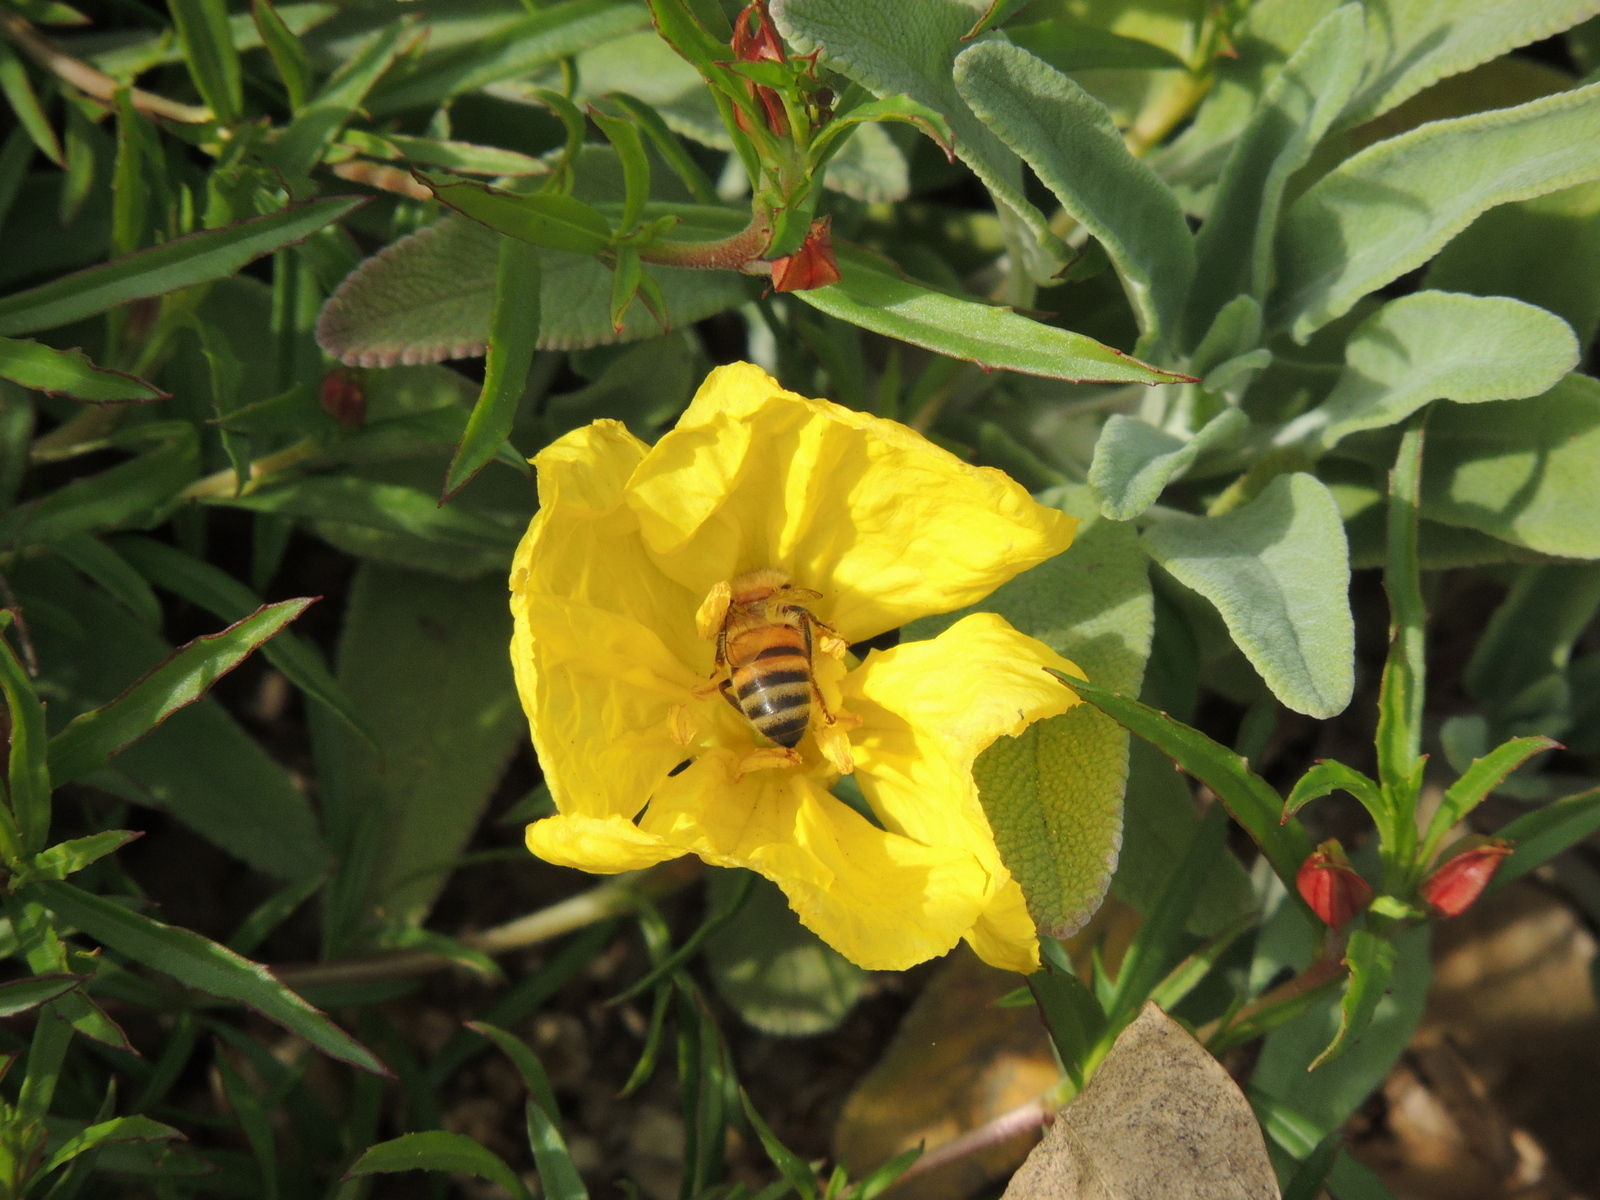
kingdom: Animalia
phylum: Arthropoda
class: Insecta
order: Hymenoptera
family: Apidae
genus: Apis
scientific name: Apis mellifera
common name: Honey bee
